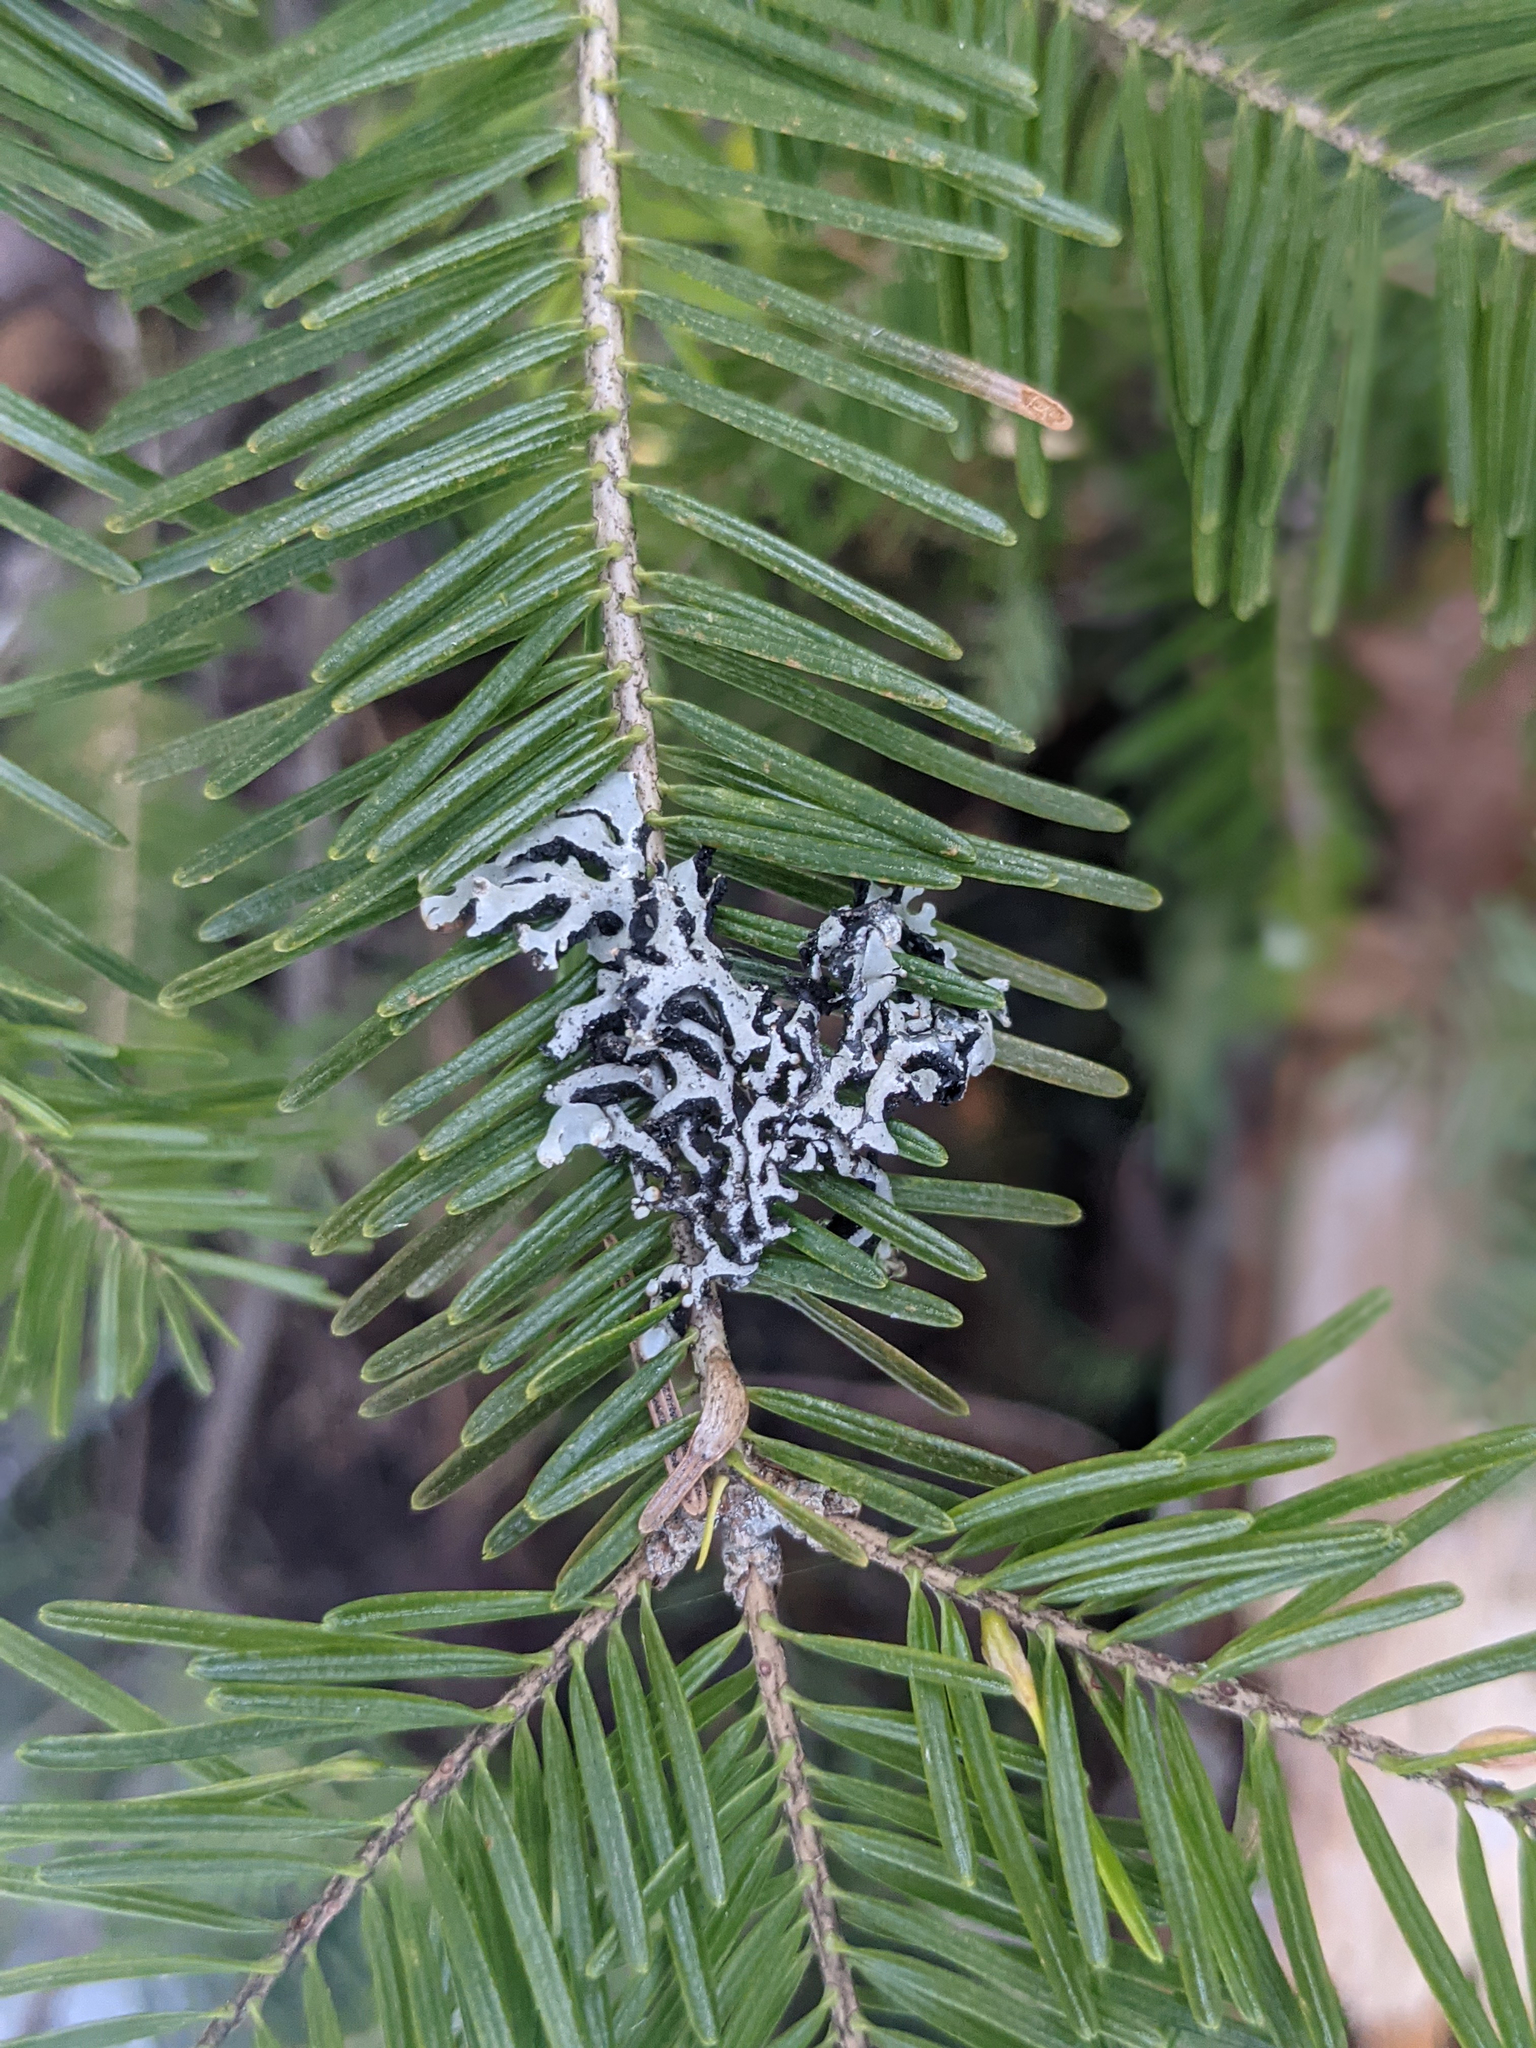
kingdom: Plantae
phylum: Tracheophyta
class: Pinopsida
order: Pinales
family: Pinaceae
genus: Abies
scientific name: Abies balsamea
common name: Balsam fir
